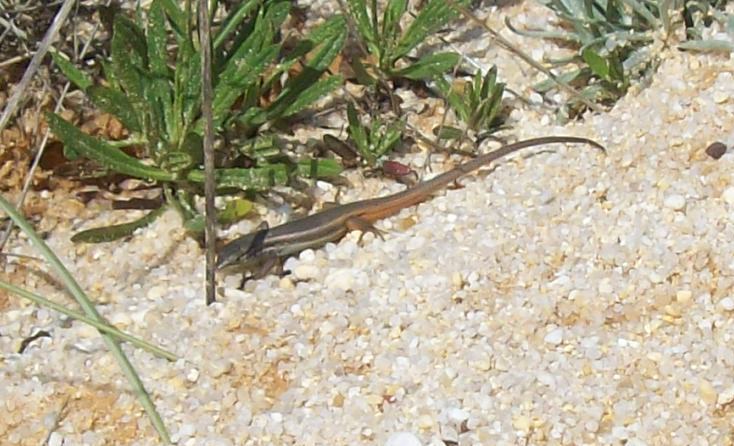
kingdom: Animalia
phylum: Chordata
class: Squamata
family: Lacertidae
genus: Psammodromus
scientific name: Psammodromus algirus
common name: Algerian psammodromus
